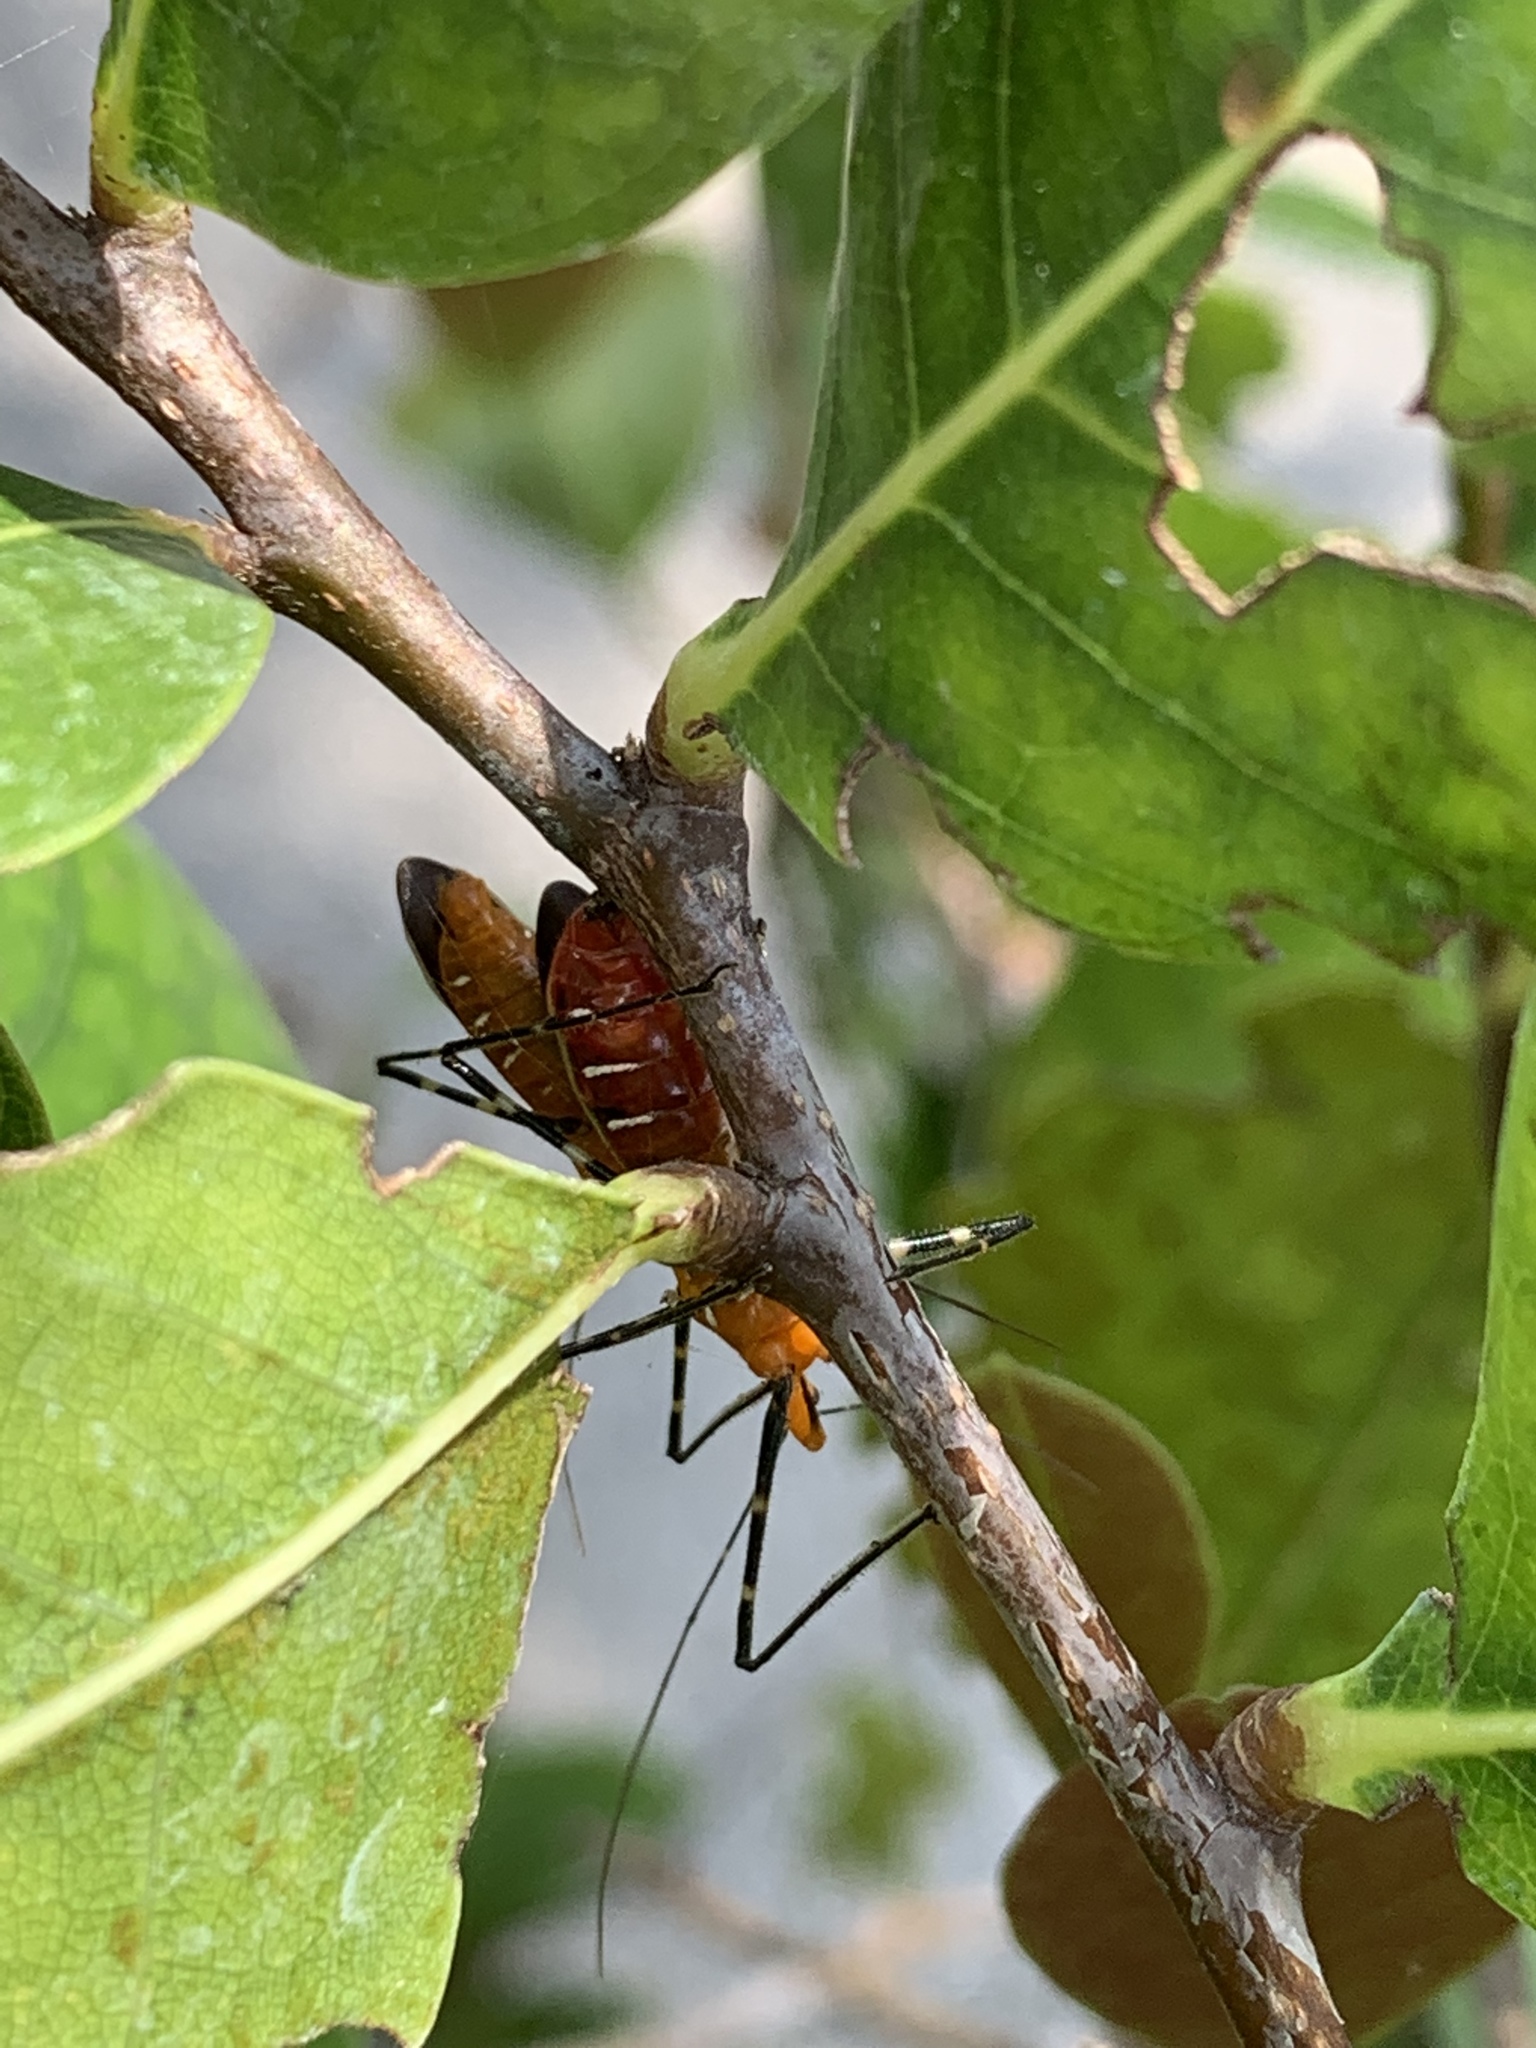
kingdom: Animalia
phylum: Arthropoda
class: Insecta
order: Hemiptera
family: Reduviidae
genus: Zelus
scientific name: Zelus longipes
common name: Milkweed assassin bug
